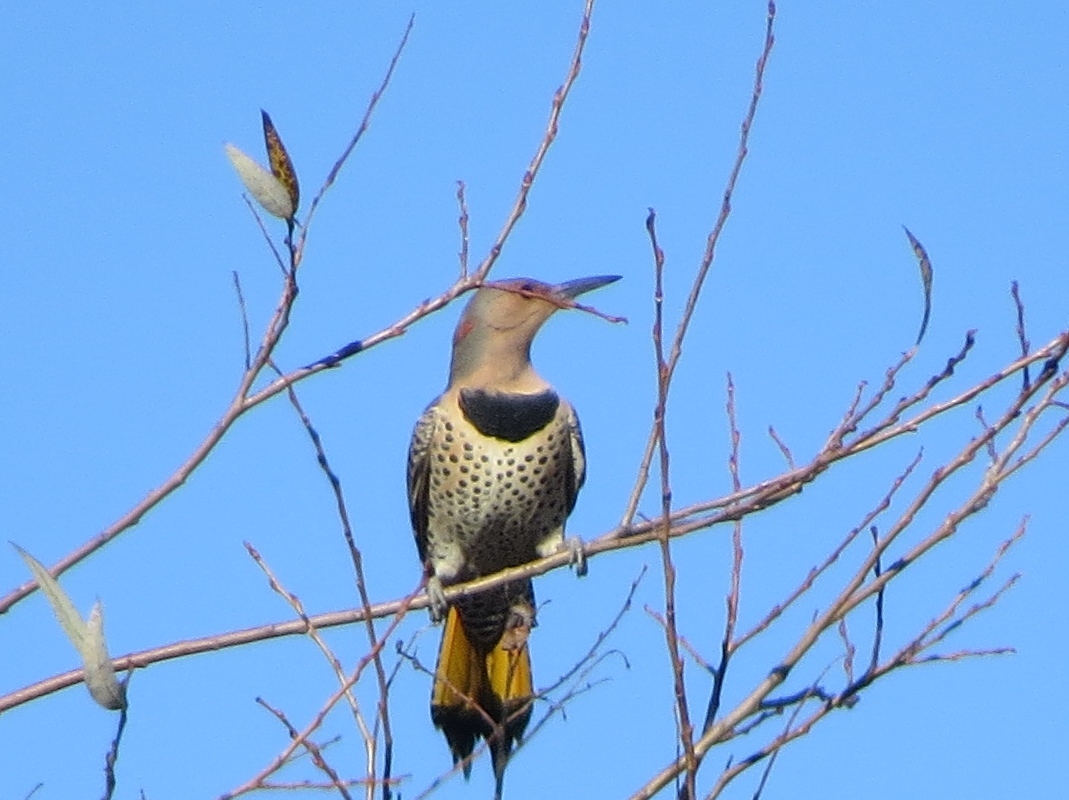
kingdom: Animalia
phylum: Chordata
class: Aves
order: Piciformes
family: Picidae
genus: Colaptes
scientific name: Colaptes auratus
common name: Northern flicker
